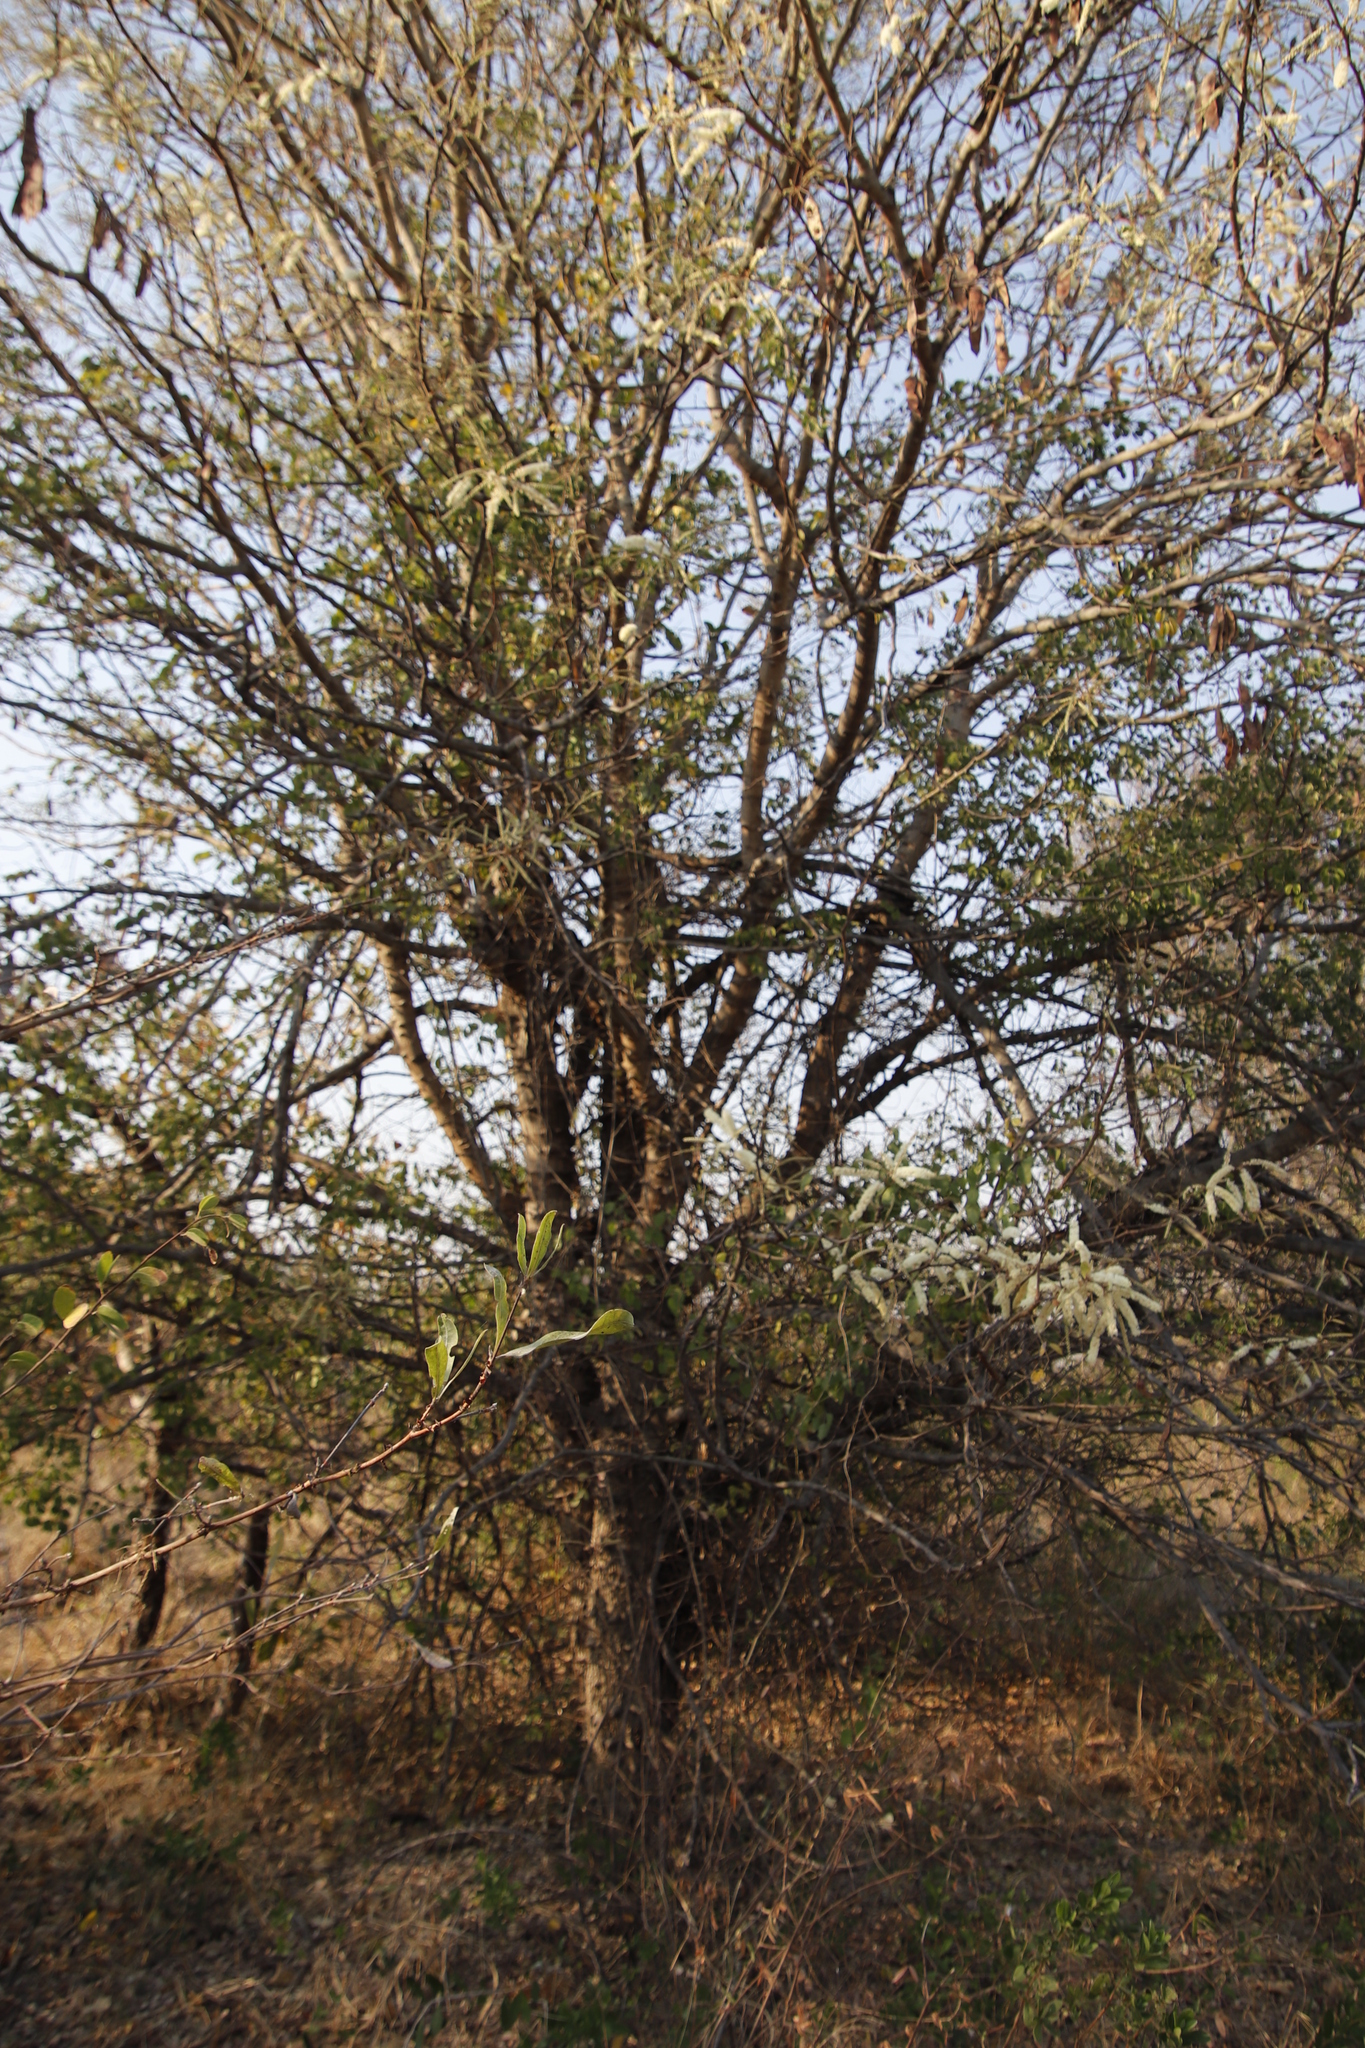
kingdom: Plantae
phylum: Tracheophyta
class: Magnoliopsida
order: Fabales
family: Fabaceae
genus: Senegalia
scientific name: Senegalia nigrescens
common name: Knobthorn
